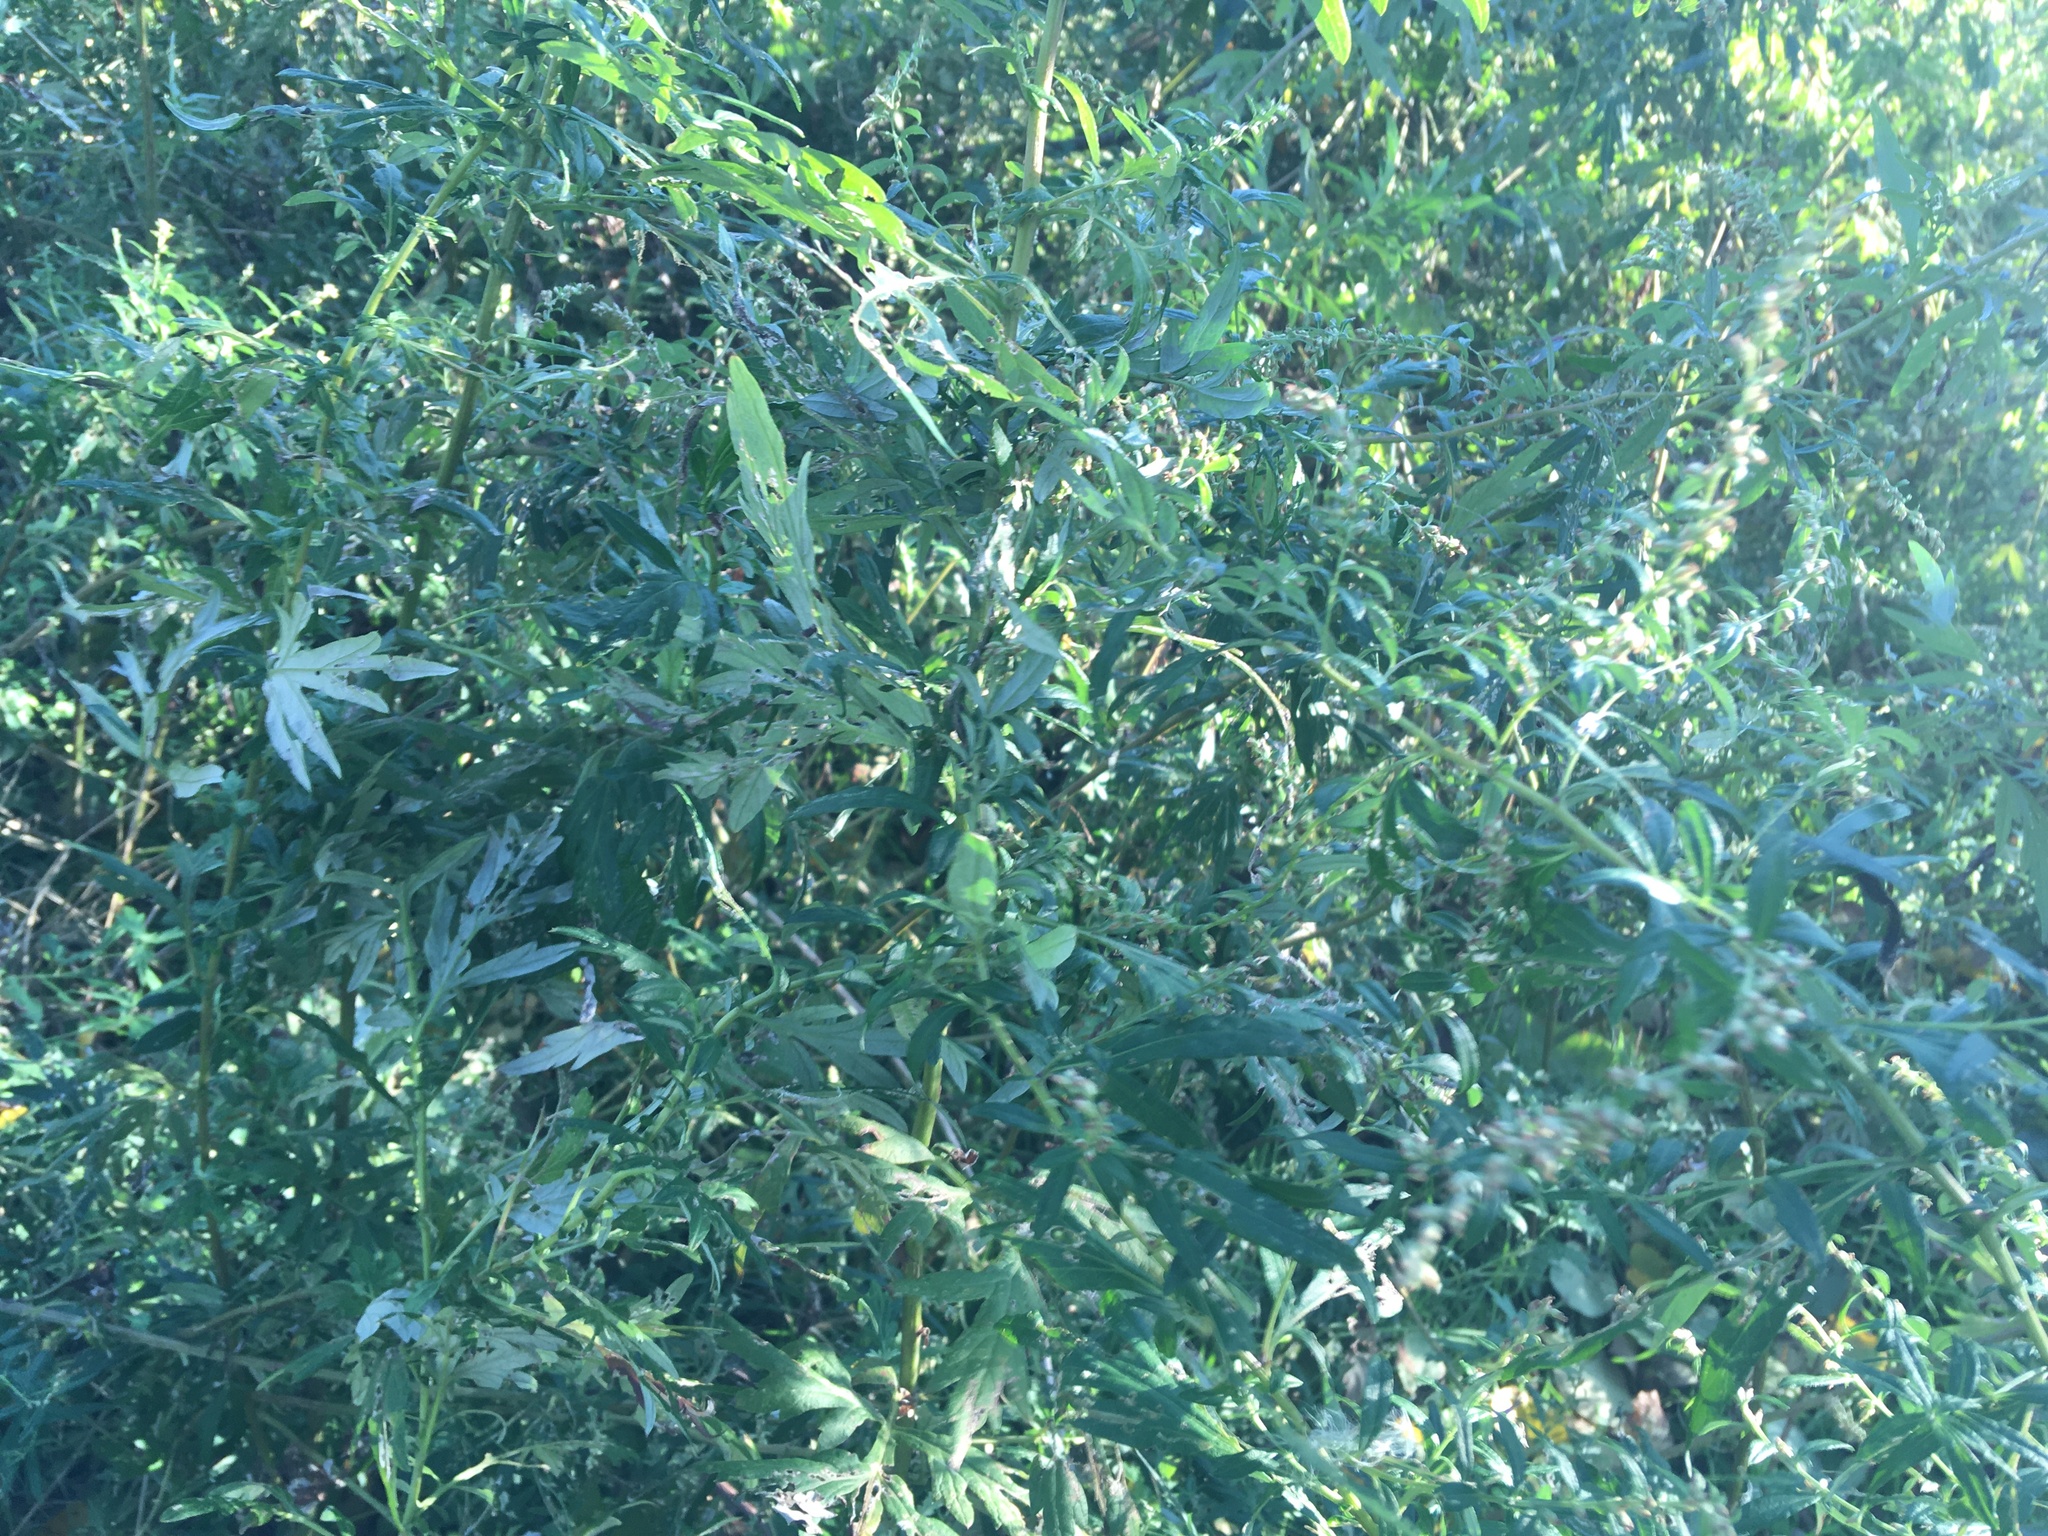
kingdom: Plantae
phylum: Tracheophyta
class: Magnoliopsida
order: Asterales
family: Asteraceae
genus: Artemisia
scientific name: Artemisia vulgaris
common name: Mugwort
